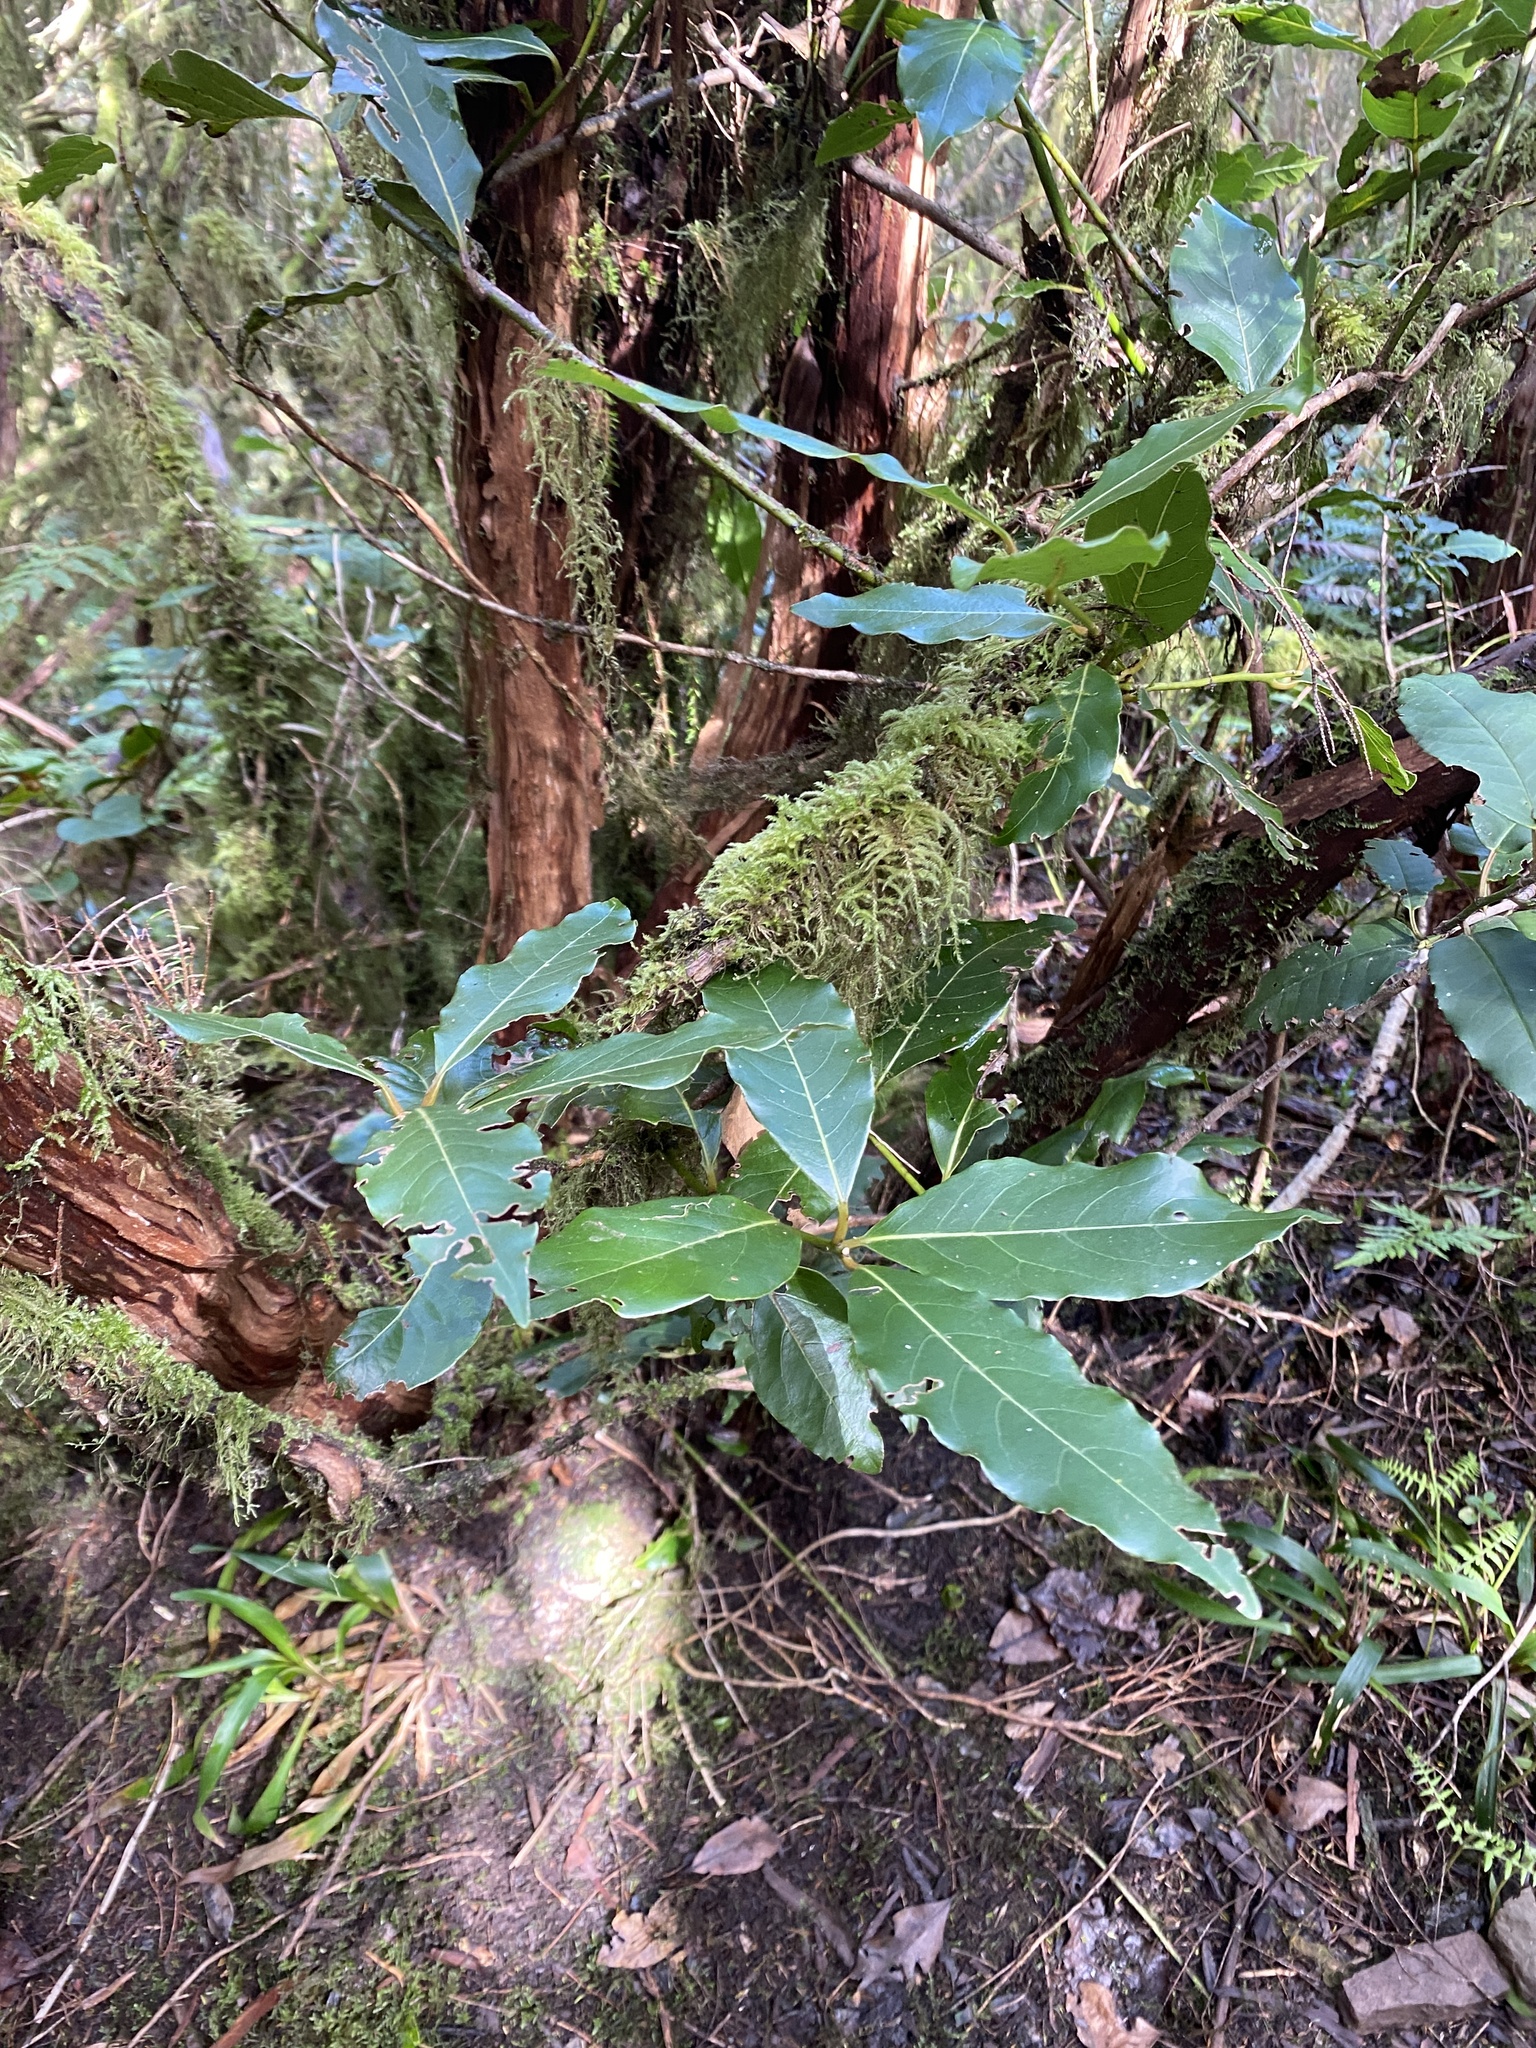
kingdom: Plantae
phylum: Tracheophyta
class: Magnoliopsida
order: Laurales
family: Lauraceae
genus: Laurus
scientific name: Laurus novocanariensis
